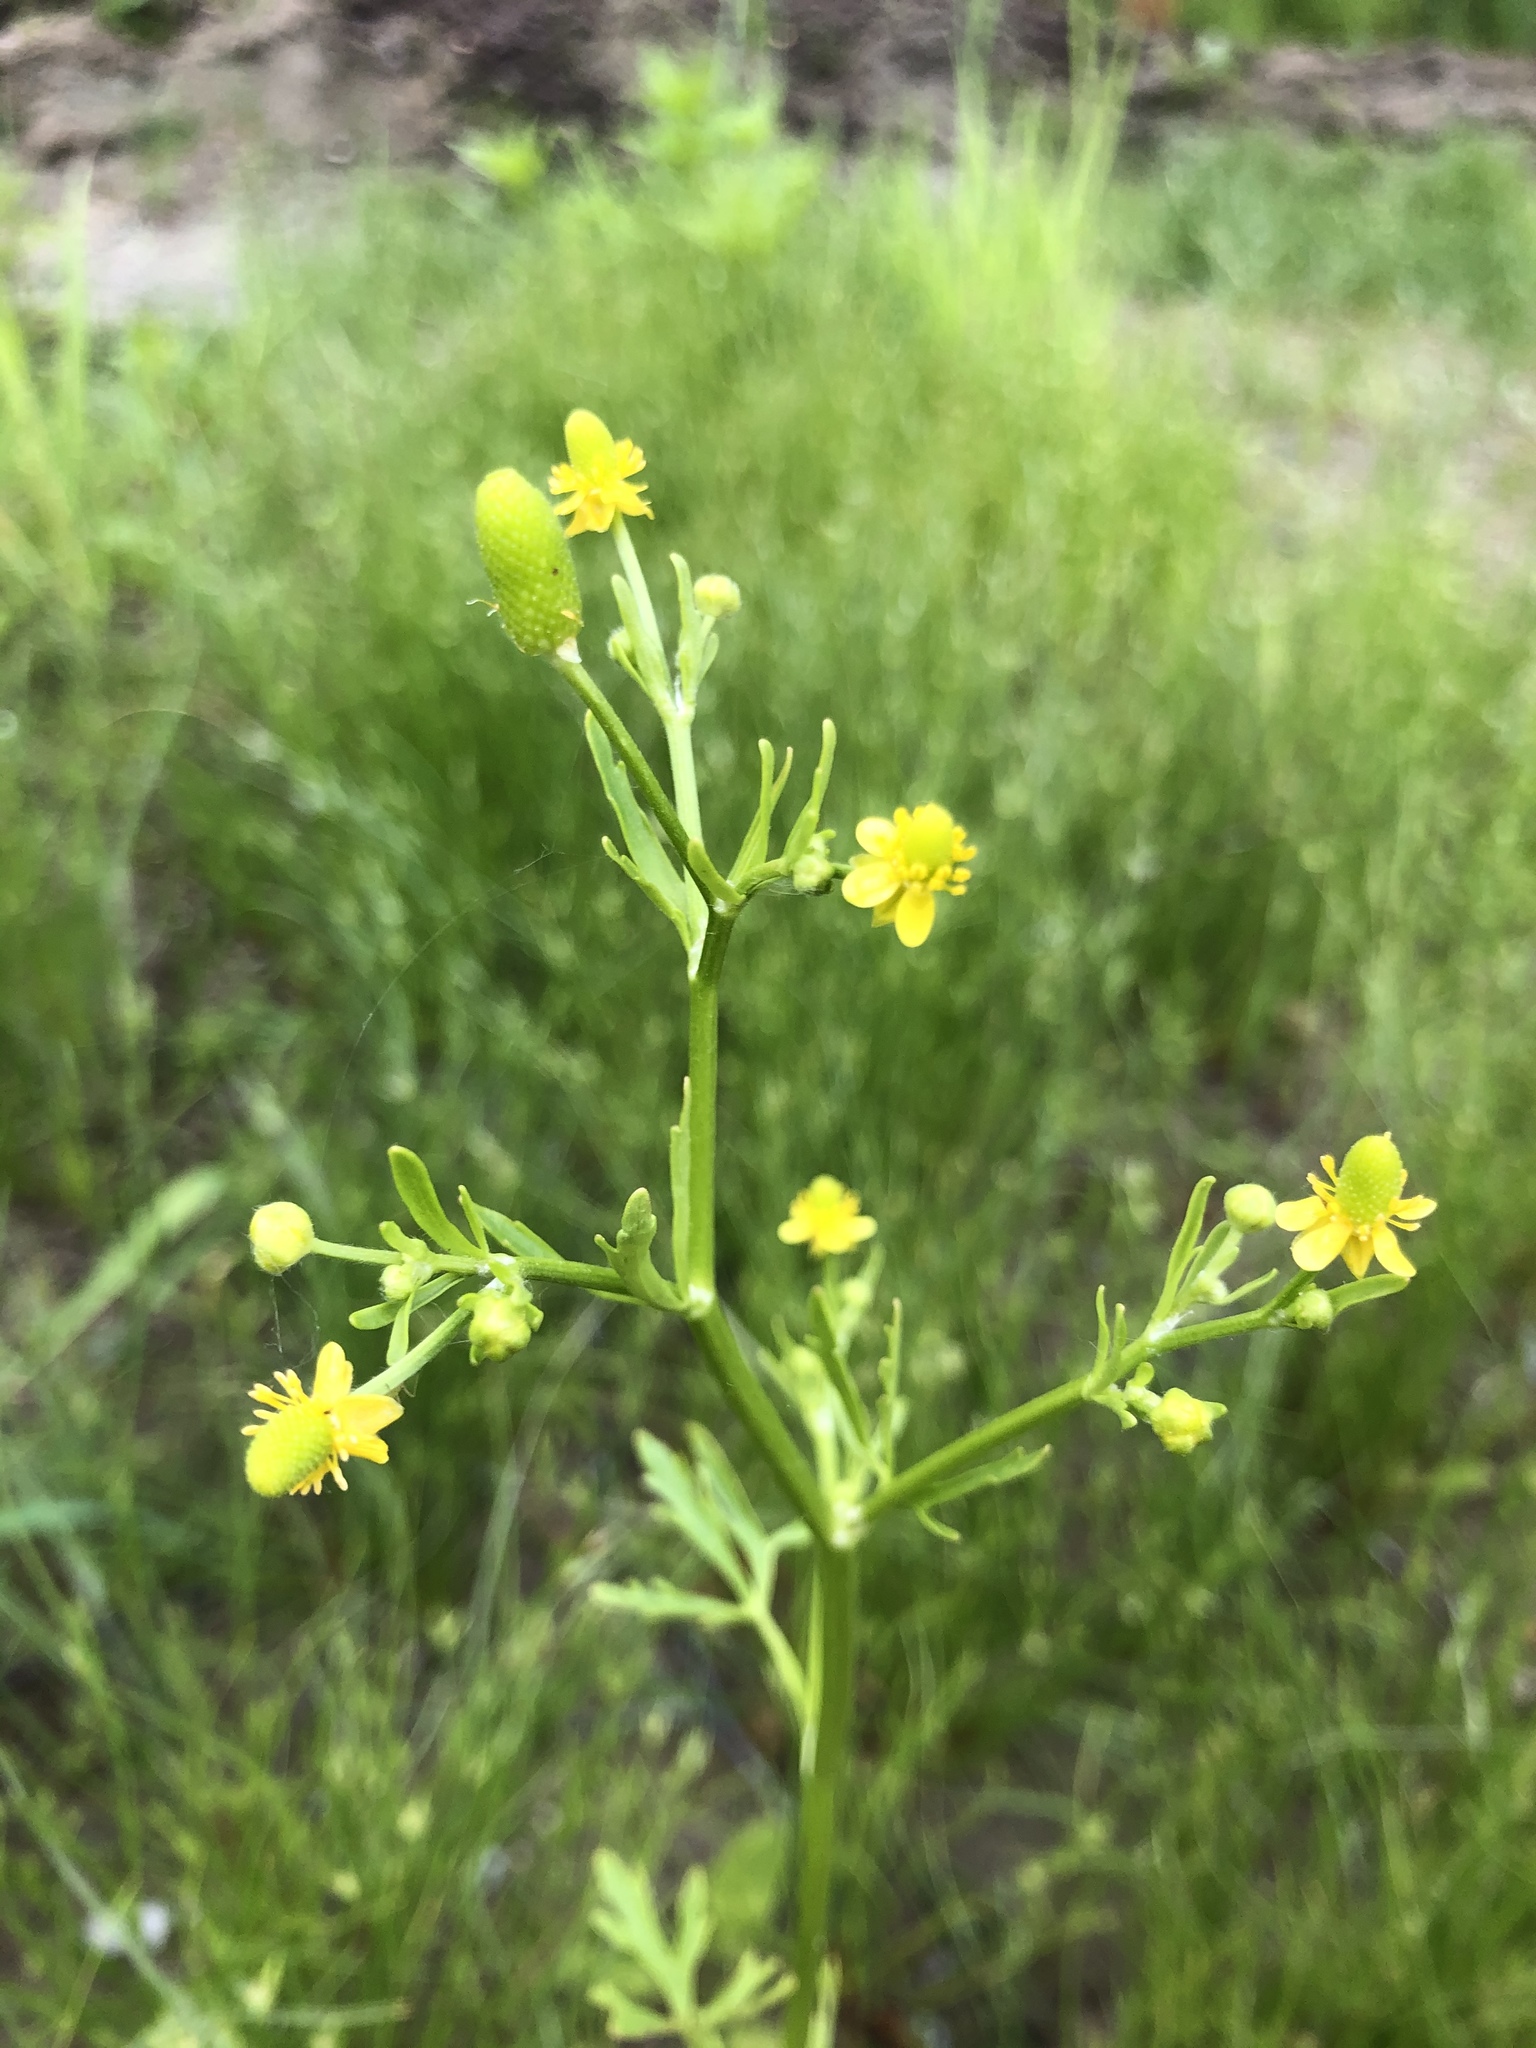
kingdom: Plantae
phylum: Tracheophyta
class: Magnoliopsida
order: Ranunculales
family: Ranunculaceae
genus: Ranunculus
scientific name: Ranunculus sceleratus
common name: Celery-leaved buttercup
